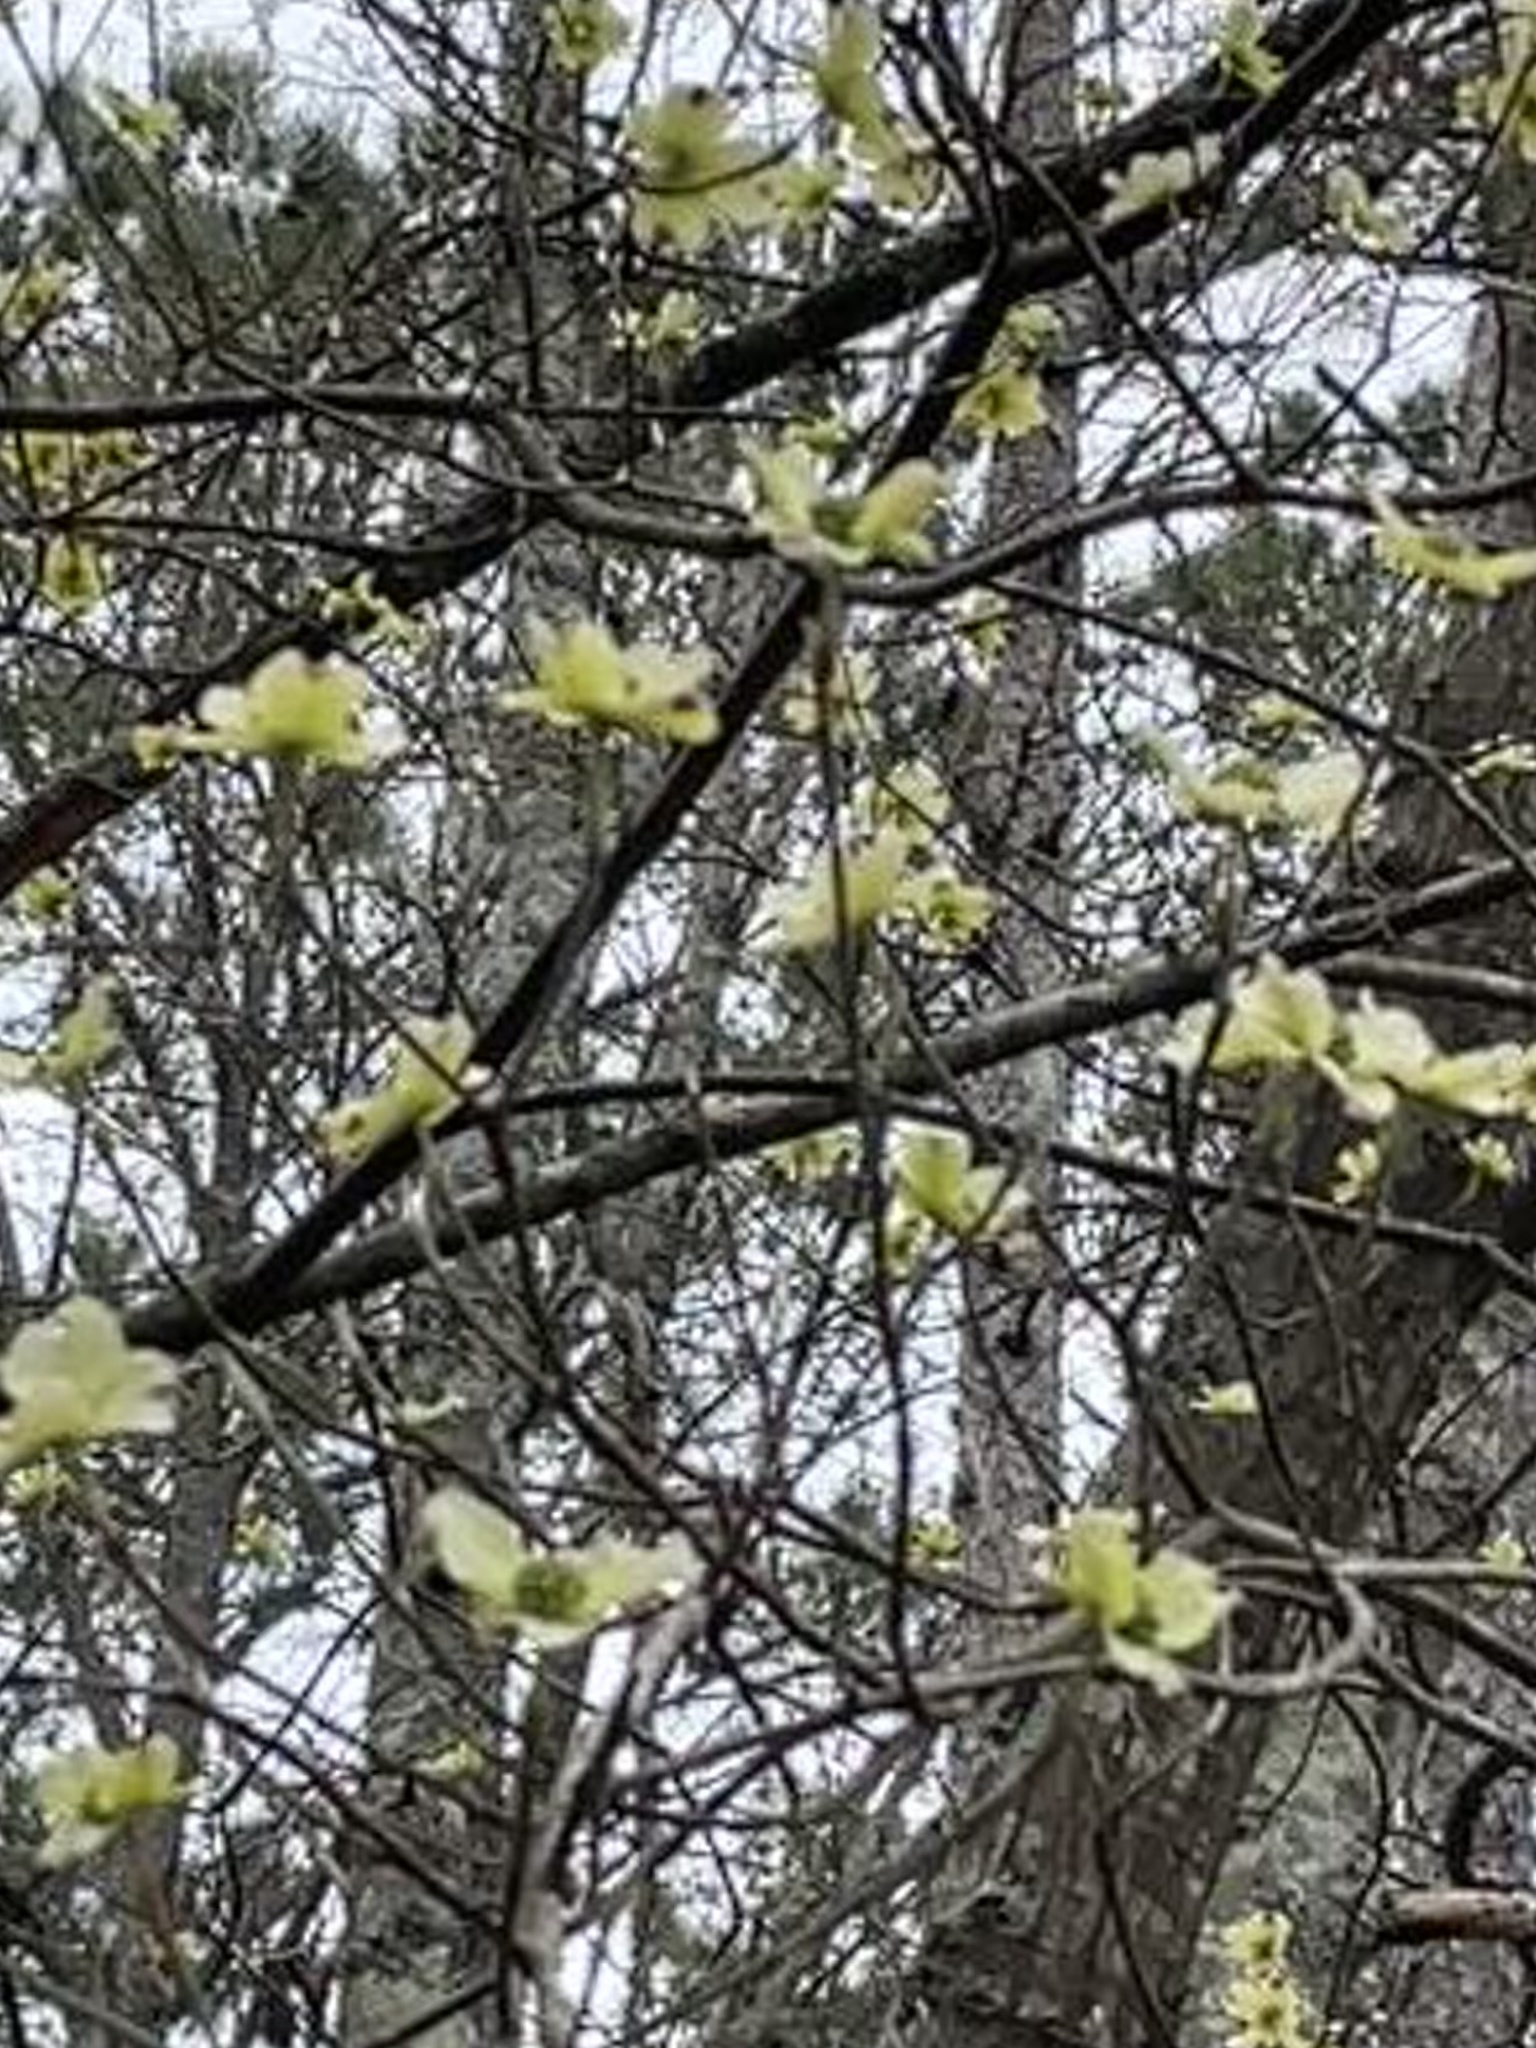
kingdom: Plantae
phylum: Tracheophyta
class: Magnoliopsida
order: Cornales
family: Cornaceae
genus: Cornus
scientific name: Cornus florida
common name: Flowering dogwood
